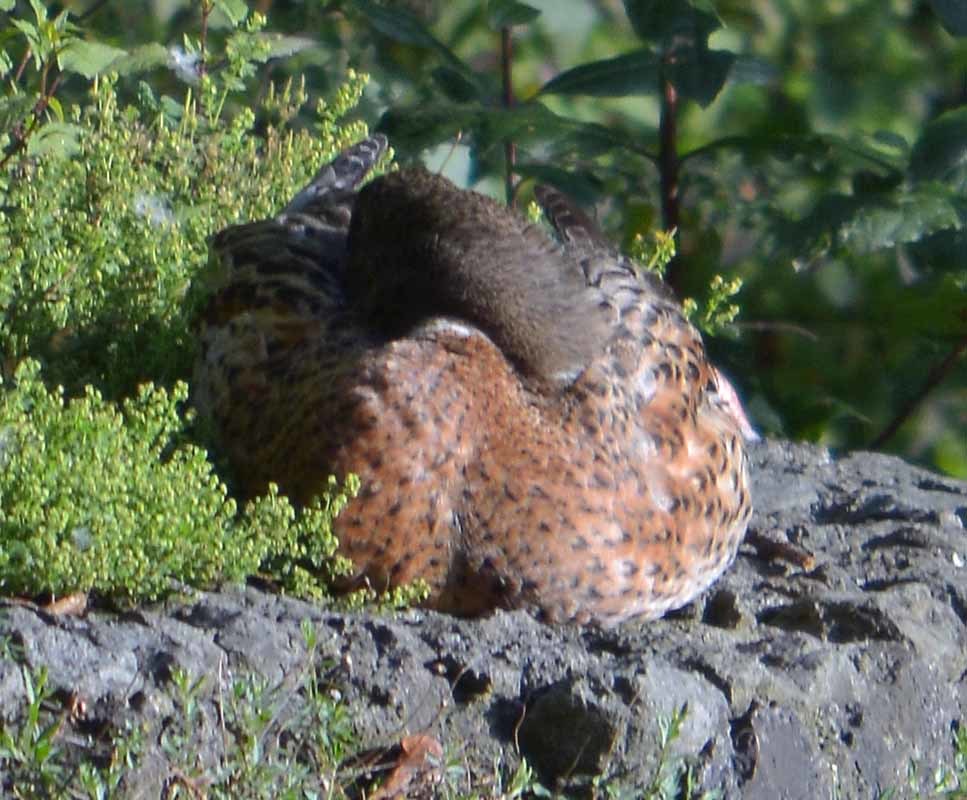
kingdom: Animalia
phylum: Chordata
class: Aves
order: Anseriformes
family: Anatidae
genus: Anas
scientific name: Anas platyrhynchos
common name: Mallard
